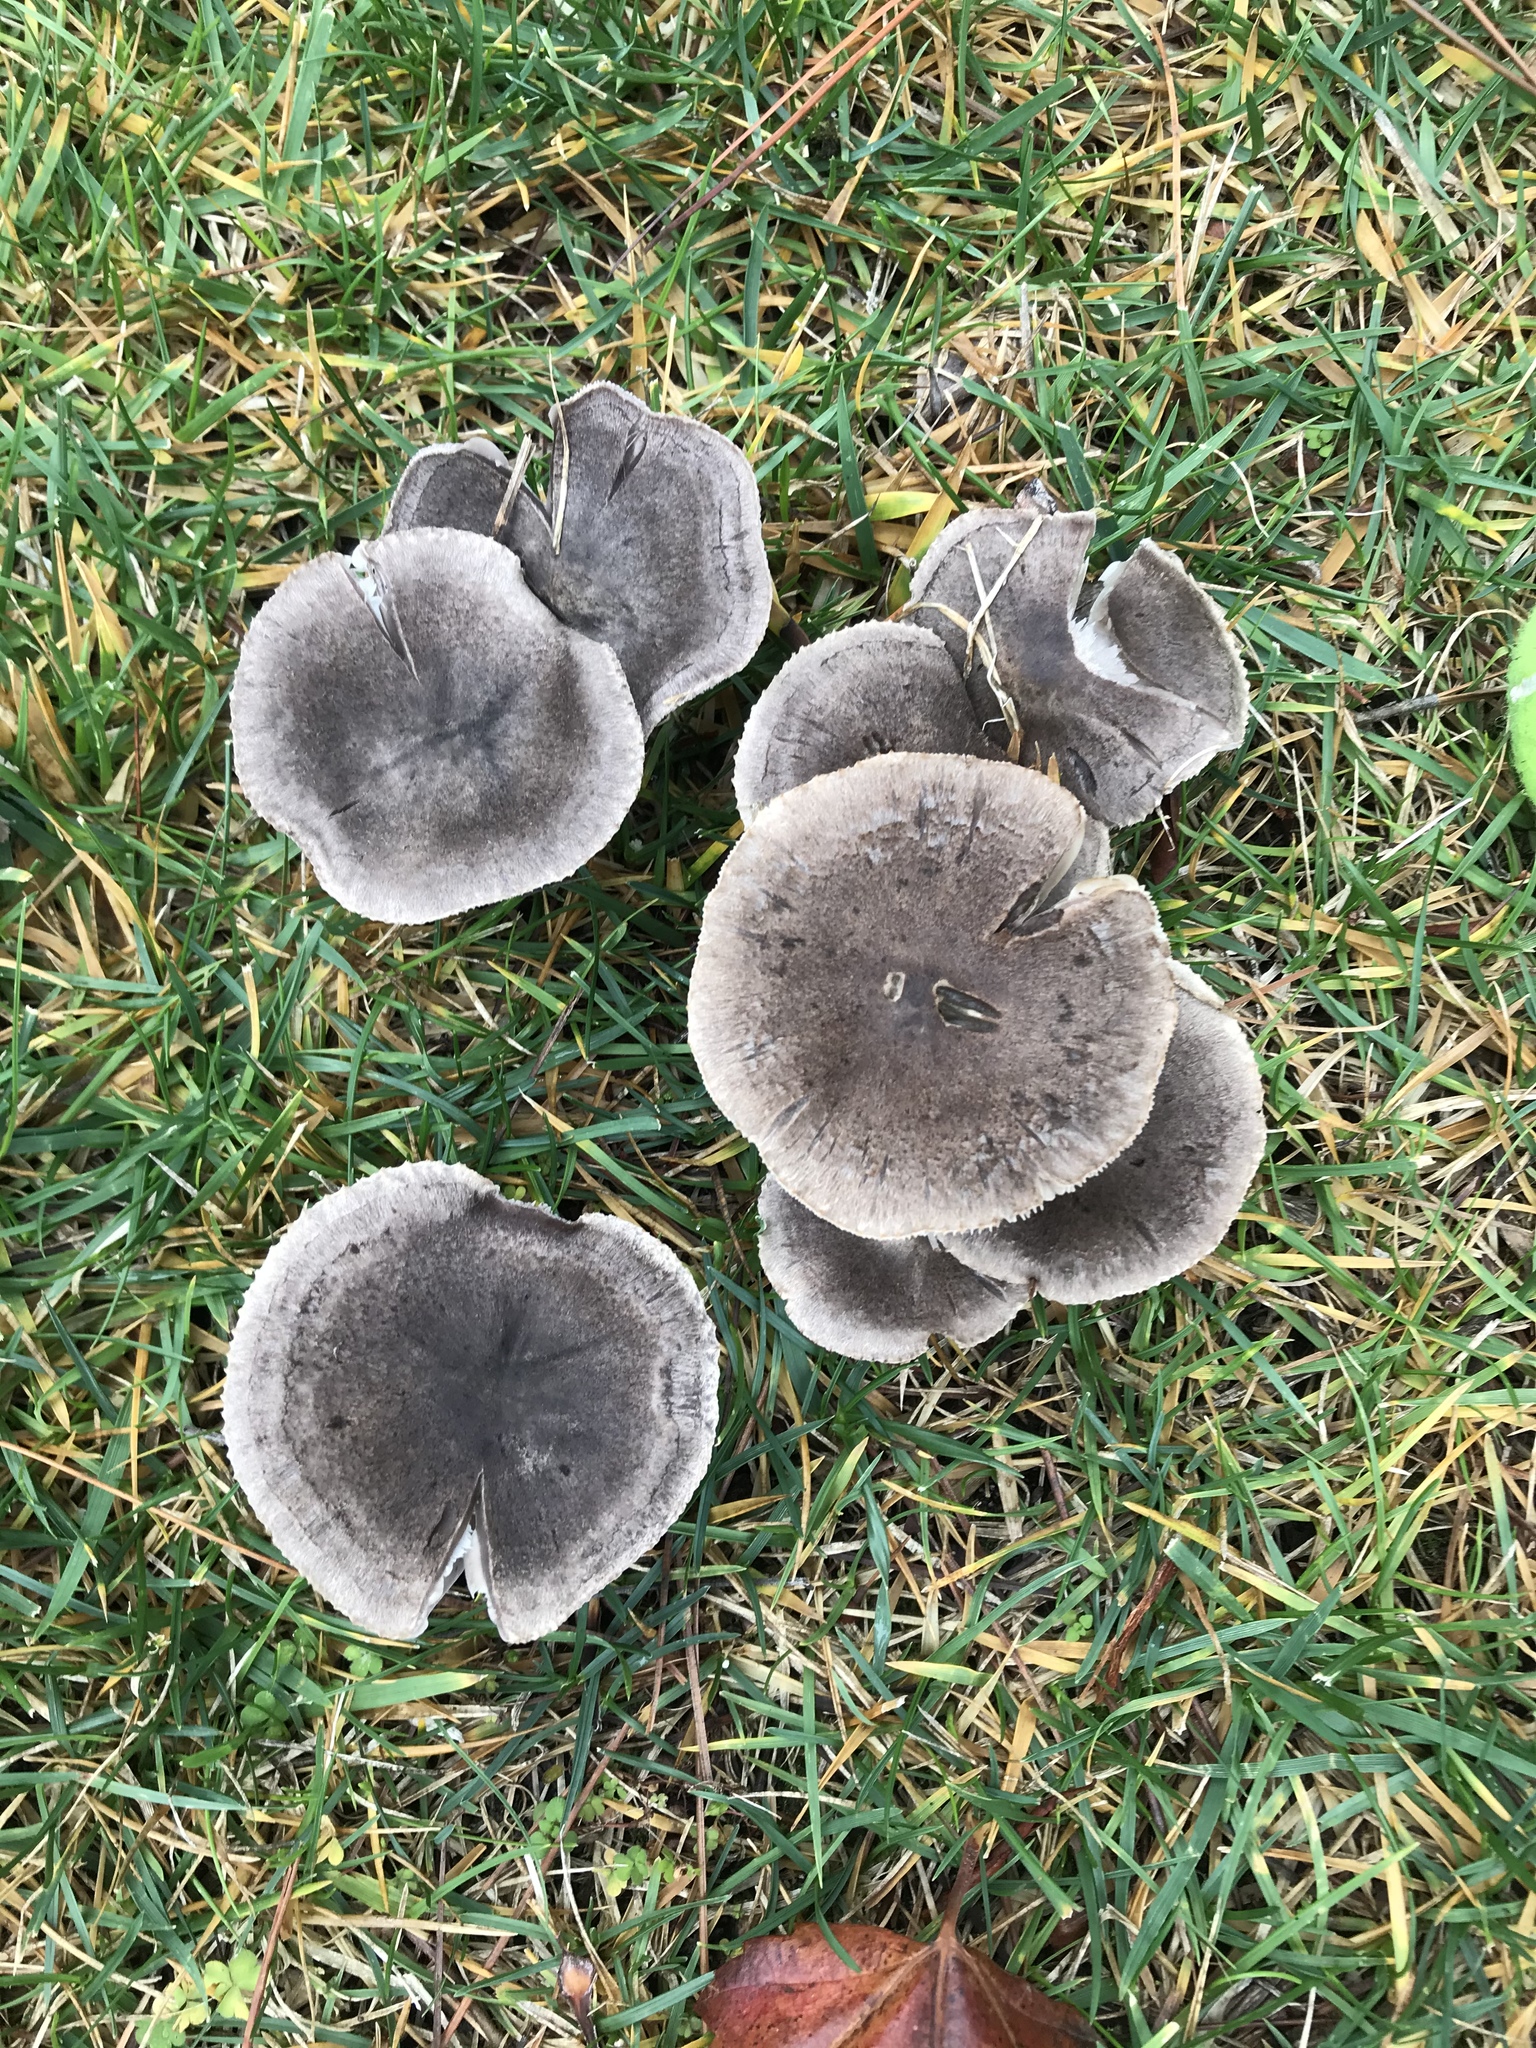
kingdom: Fungi
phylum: Basidiomycota
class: Agaricomycetes
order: Agaricales
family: Tricholomataceae
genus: Tricholoma
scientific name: Tricholoma terreum
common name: Grey knight
